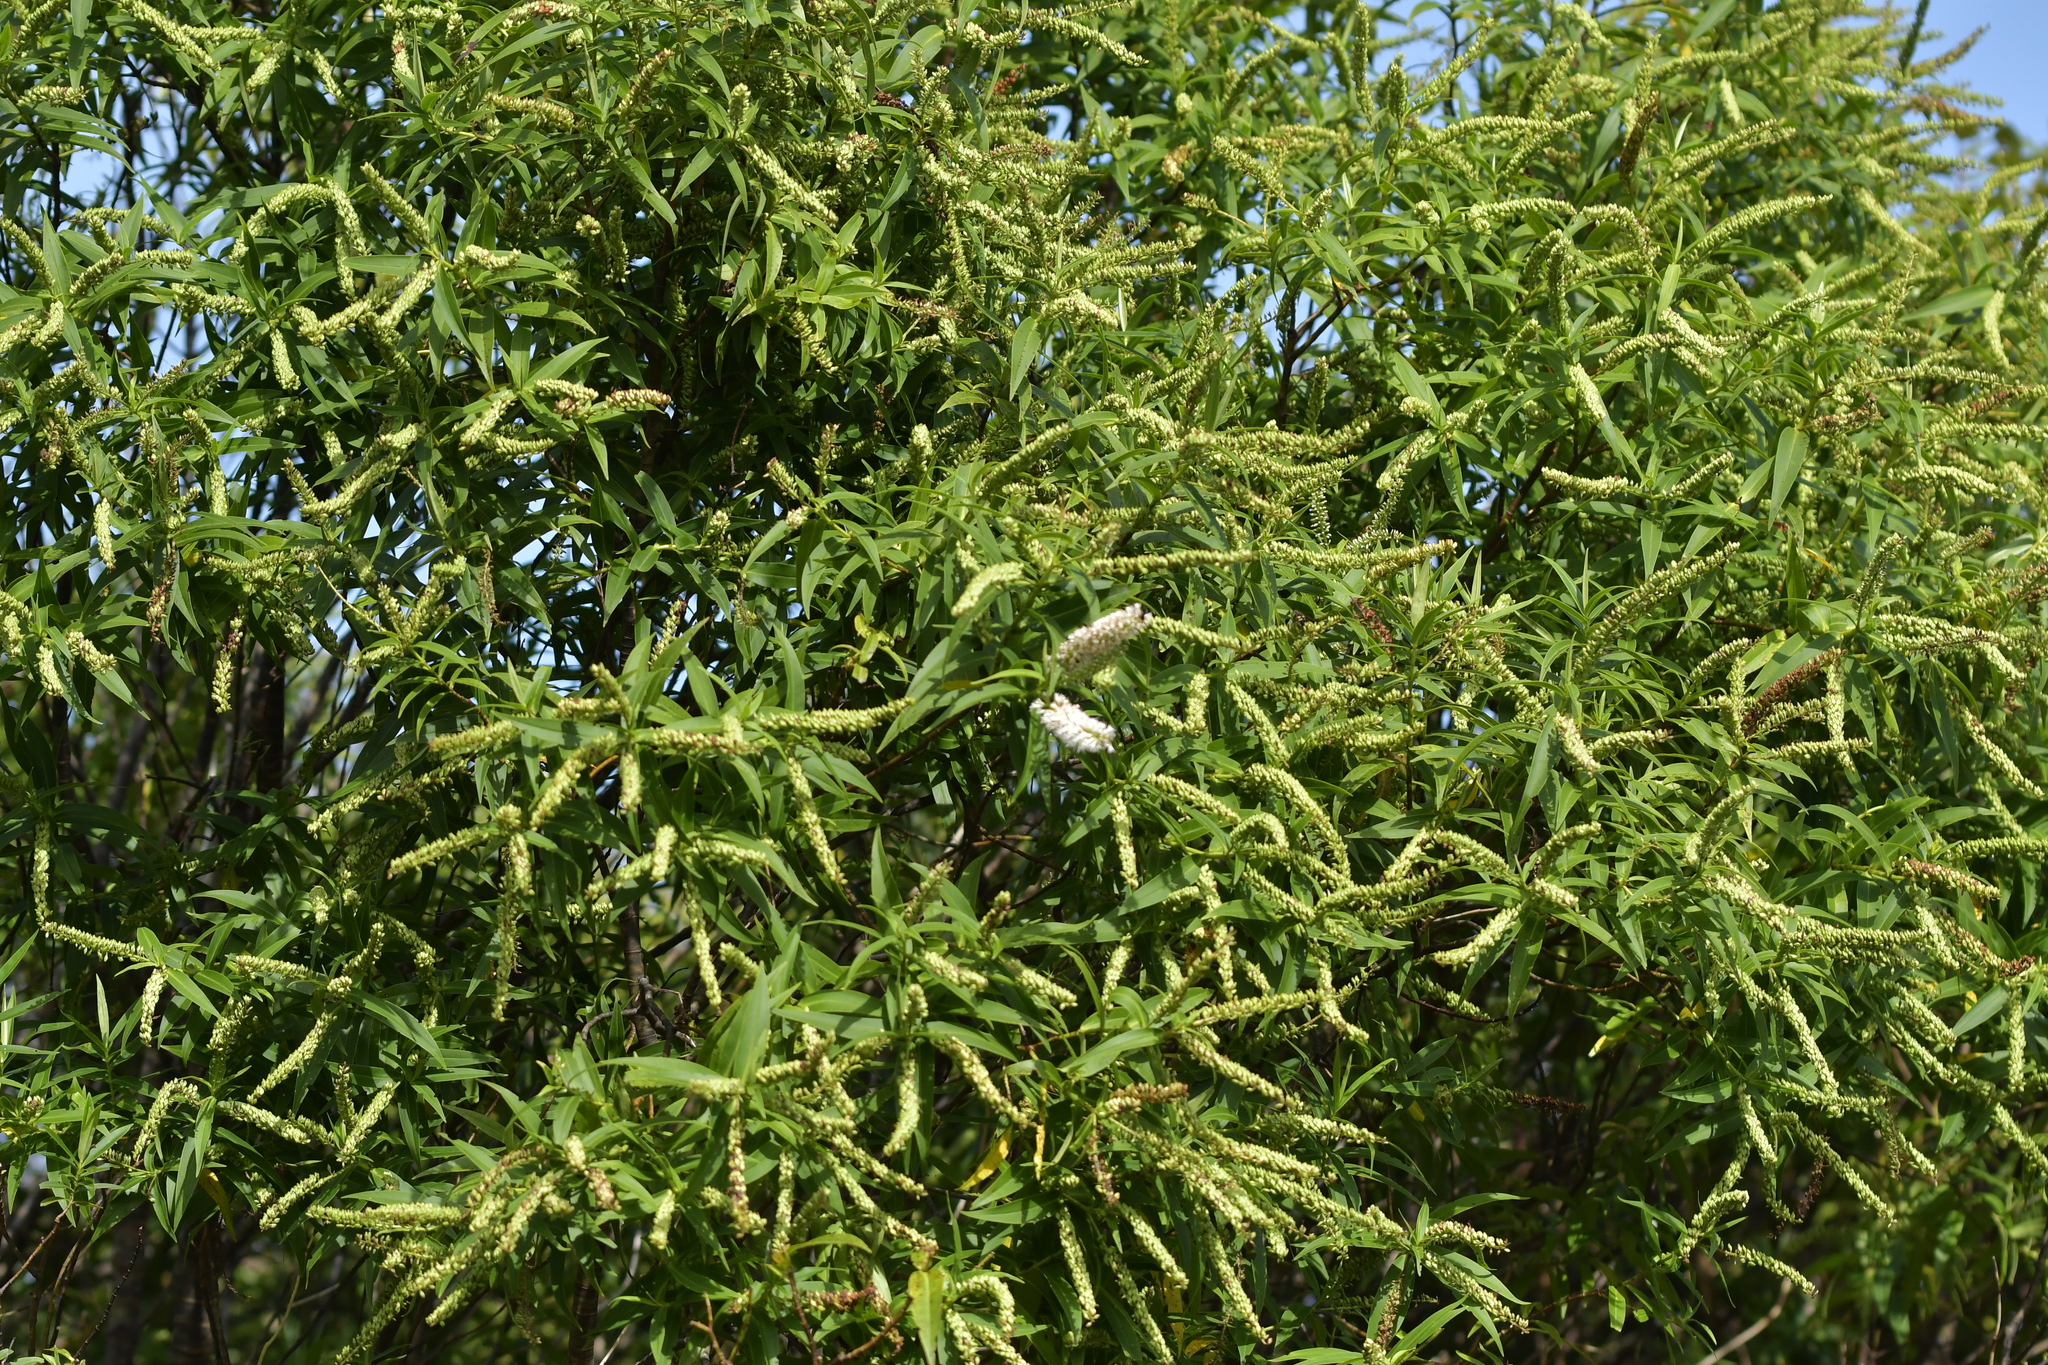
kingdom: Plantae
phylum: Tracheophyta
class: Magnoliopsida
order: Lamiales
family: Plantaginaceae
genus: Veronica
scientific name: Veronica stricta
